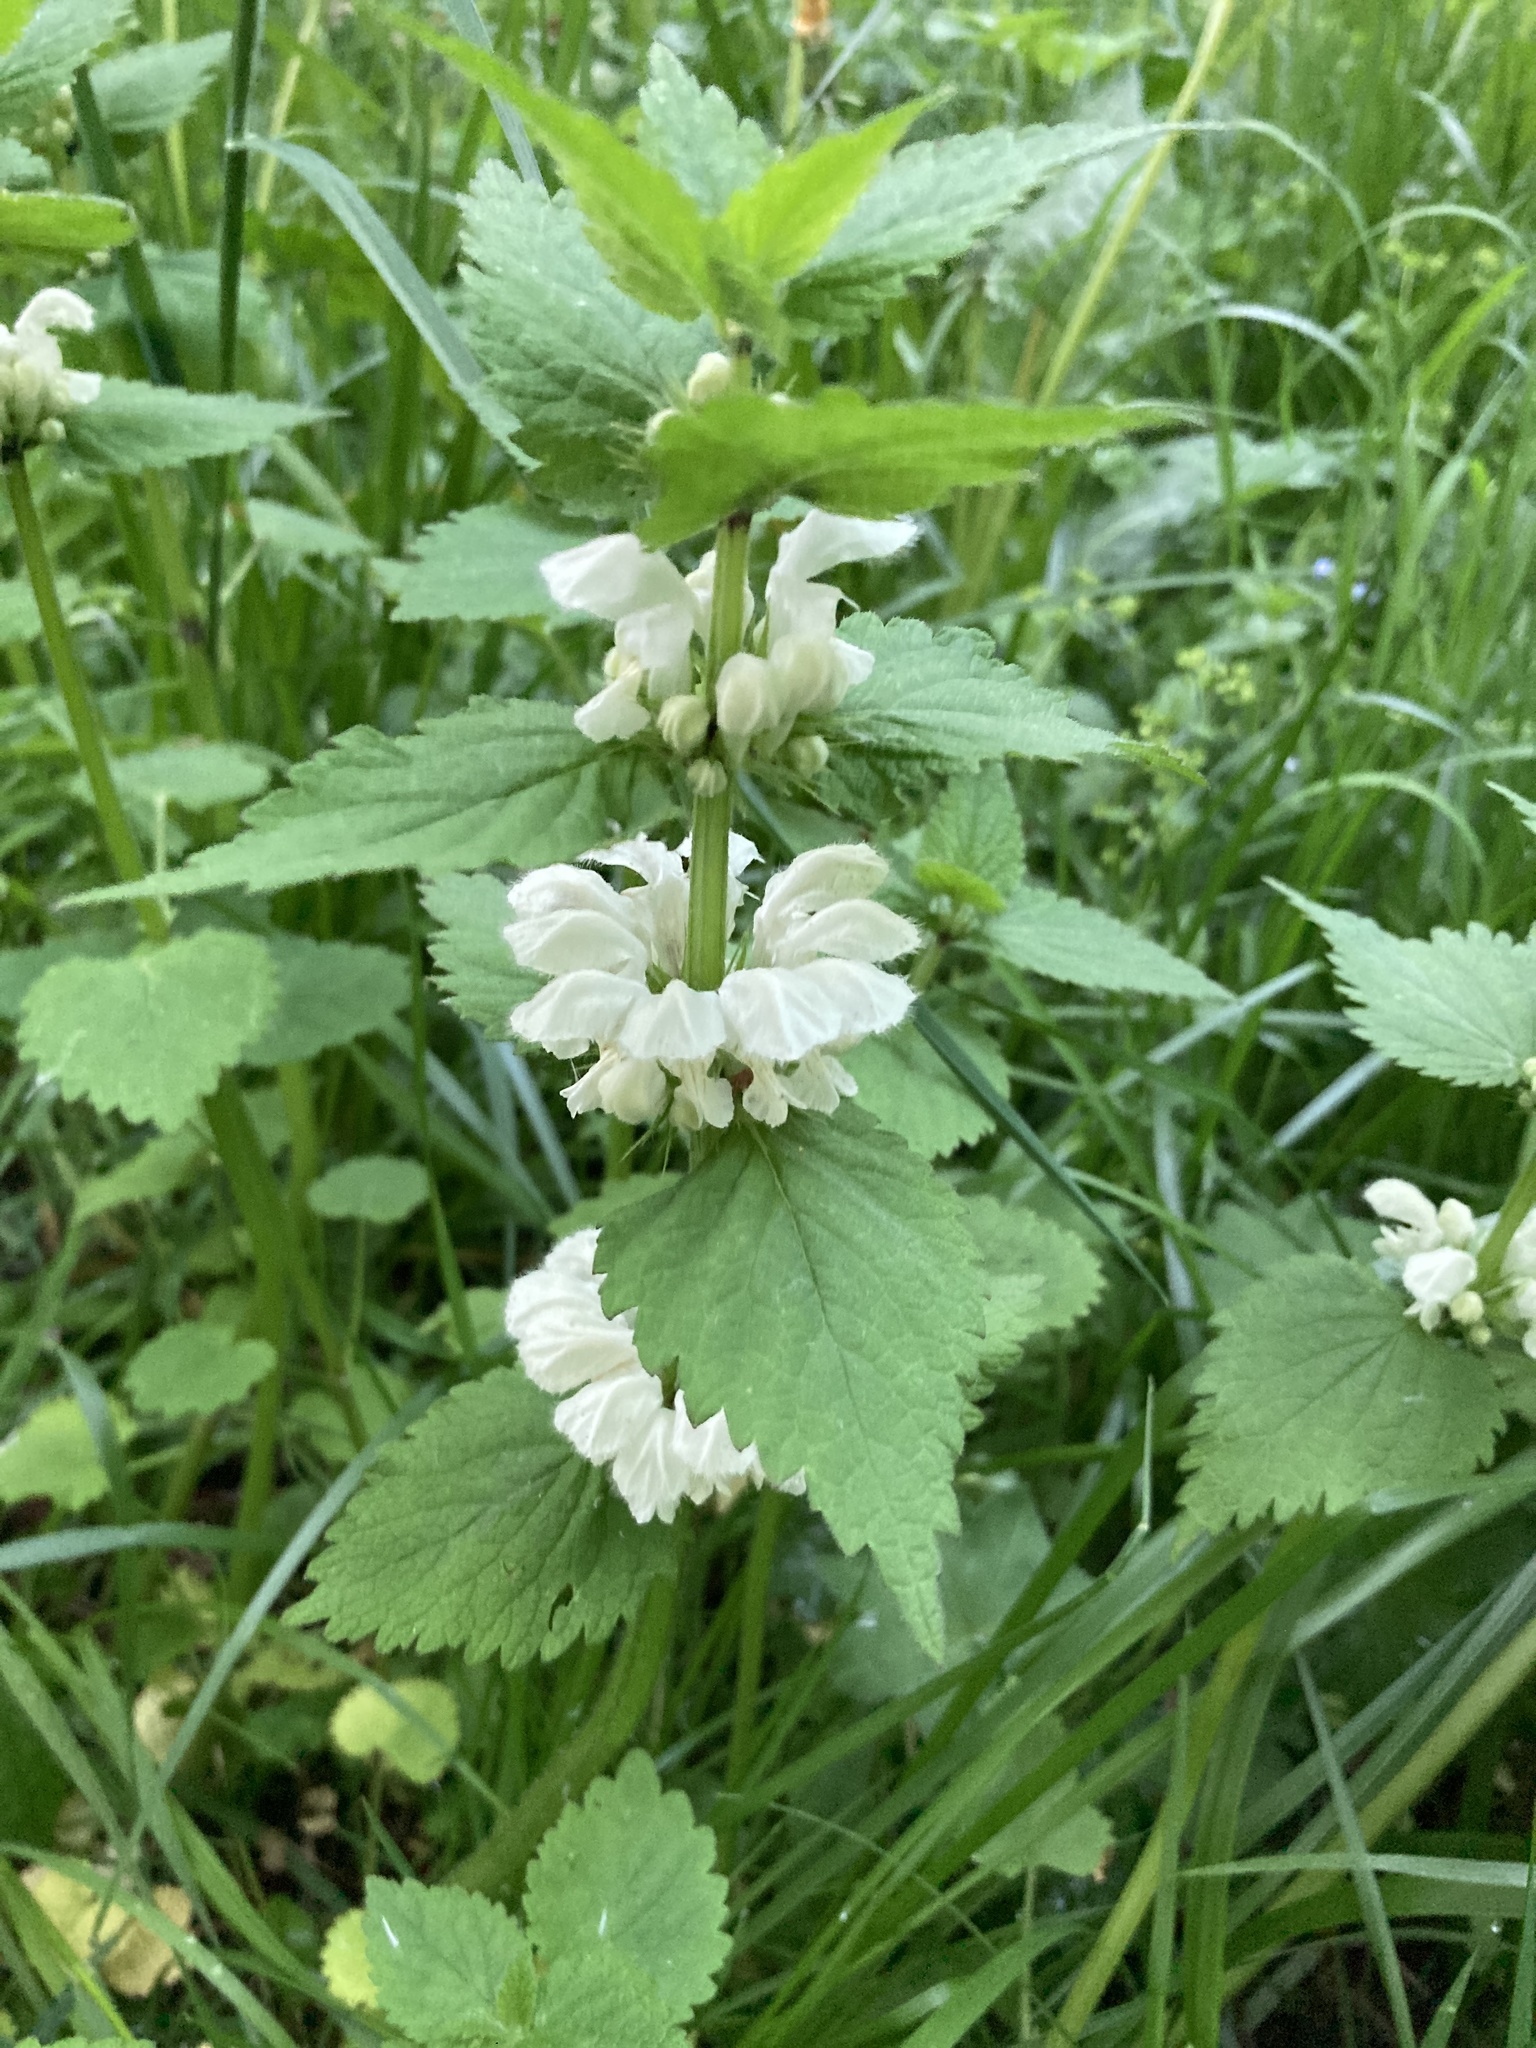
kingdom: Plantae
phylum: Tracheophyta
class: Magnoliopsida
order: Lamiales
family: Lamiaceae
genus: Lamium
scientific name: Lamium album
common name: White dead-nettle
